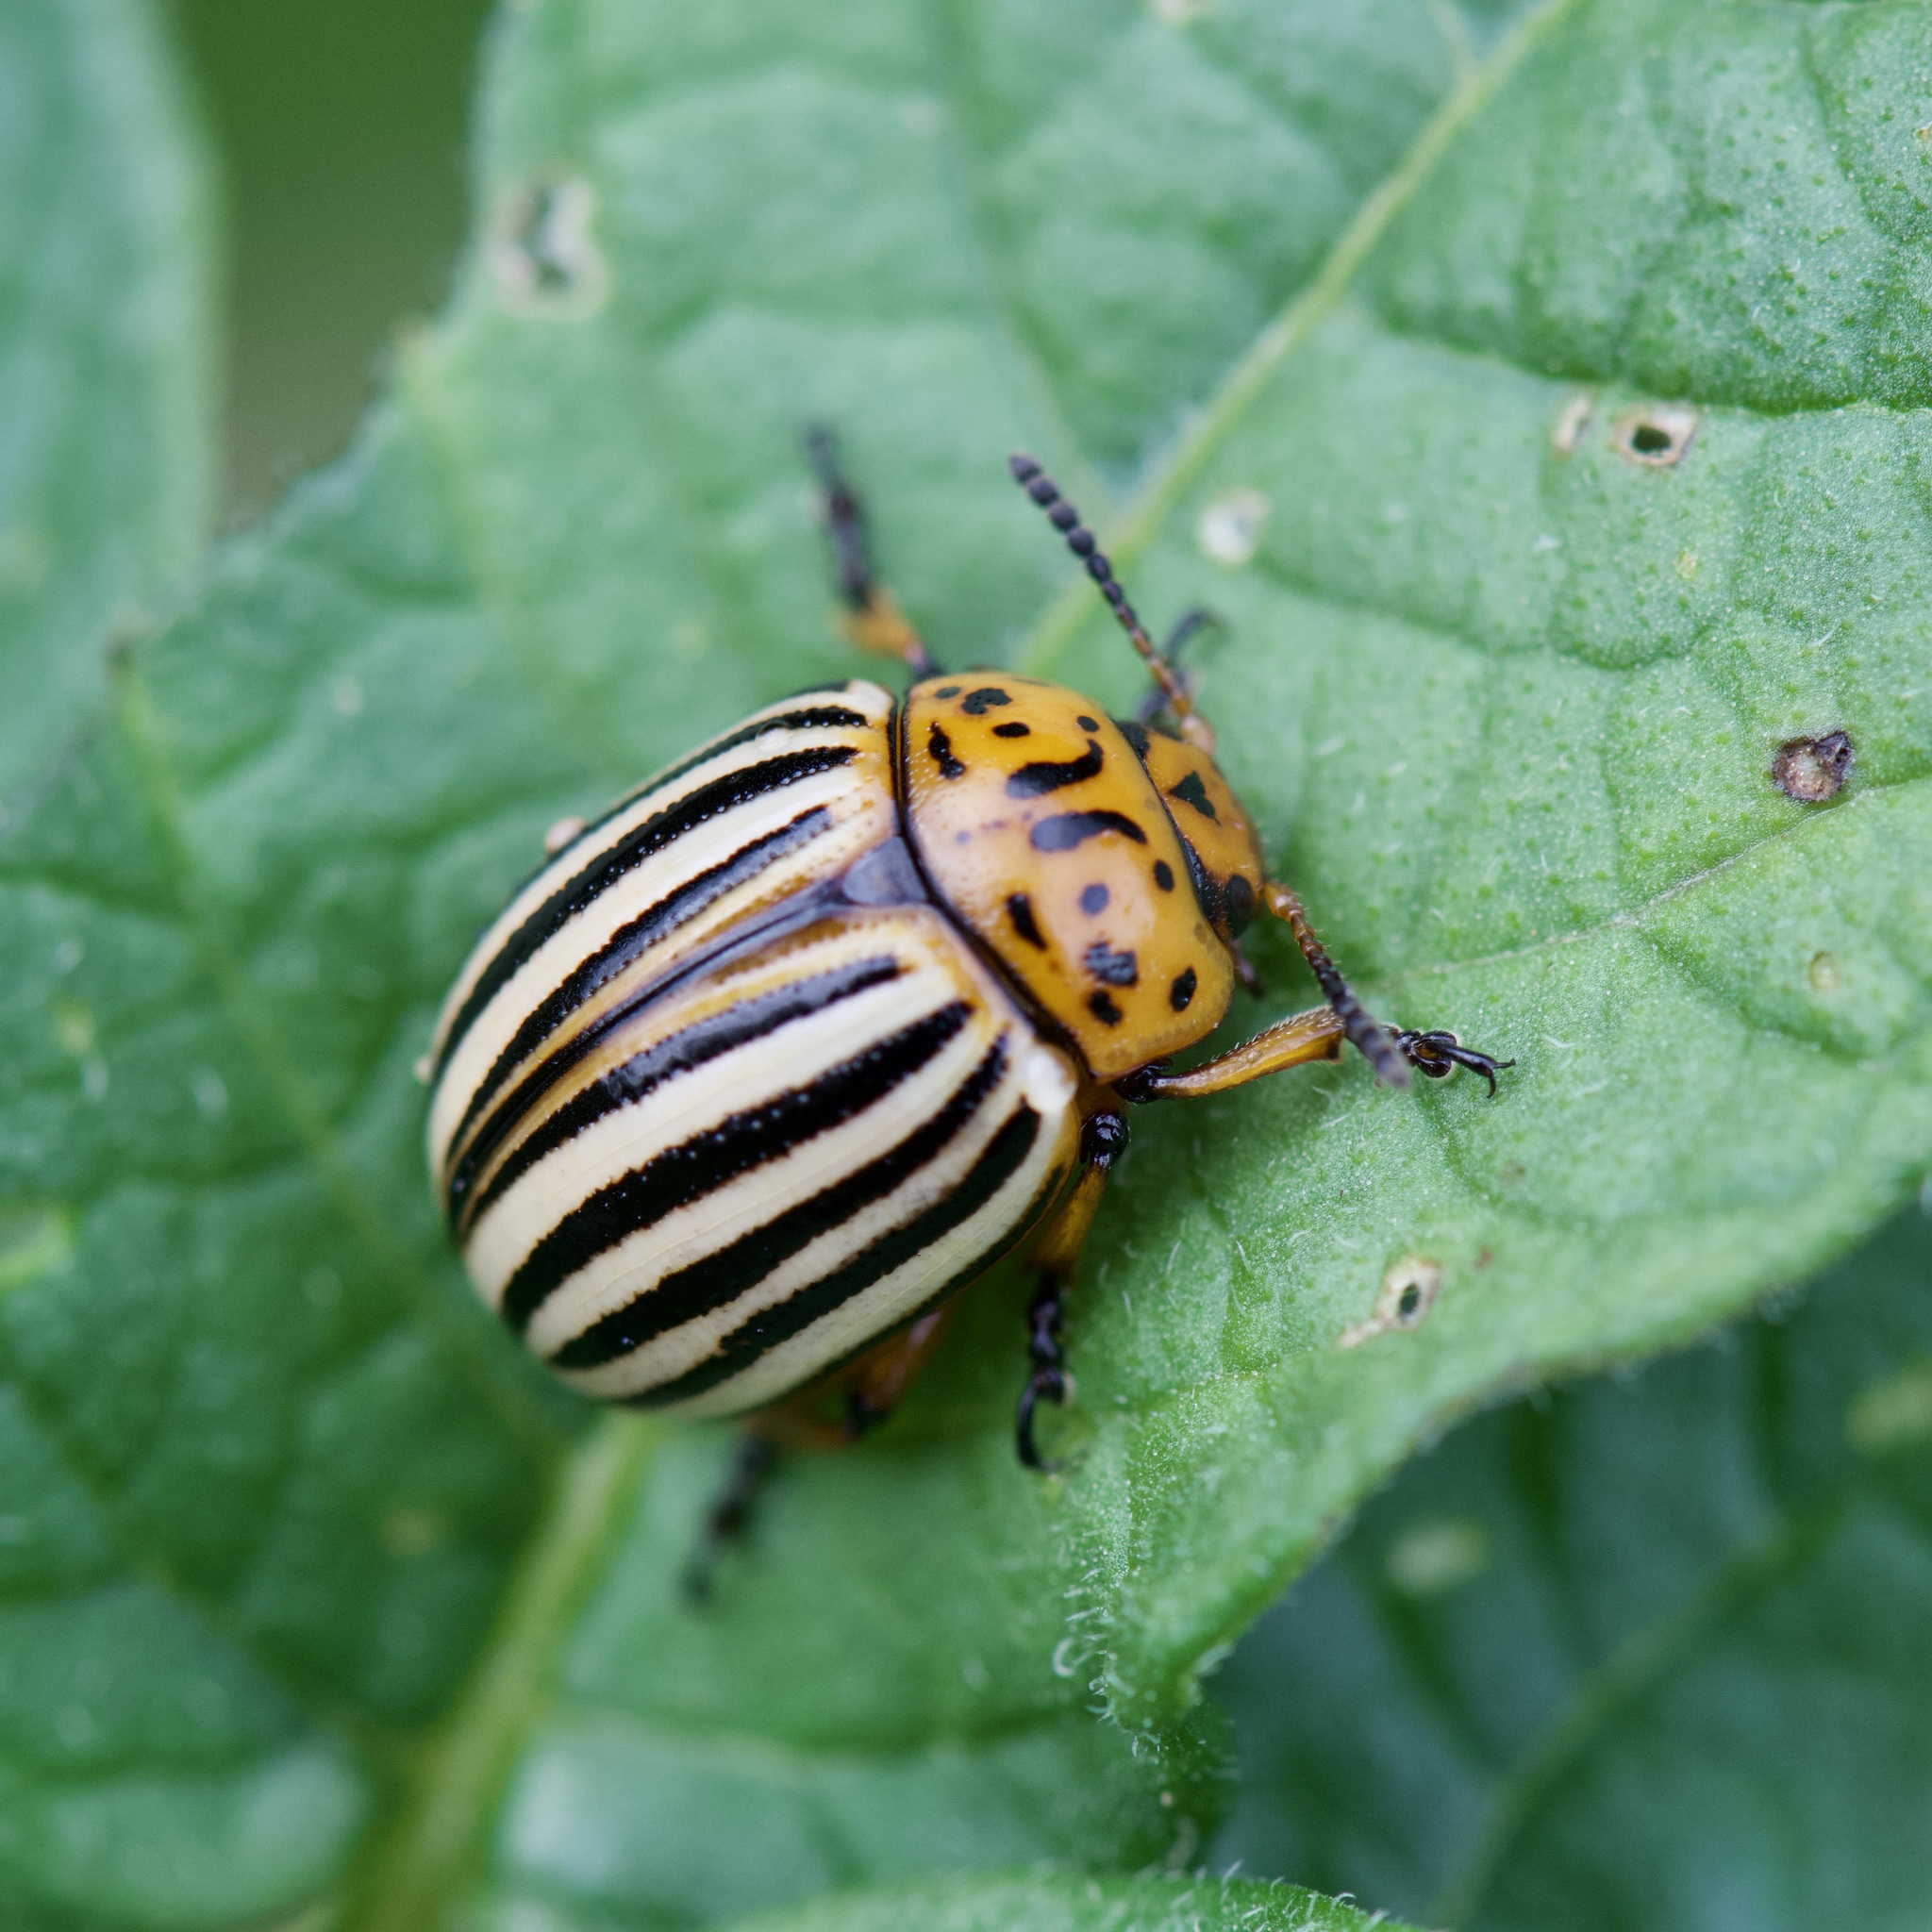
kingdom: Animalia
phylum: Arthropoda
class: Insecta
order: Coleoptera
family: Chrysomelidae
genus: Leptinotarsa
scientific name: Leptinotarsa decemlineata
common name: Colorado potato beetle
